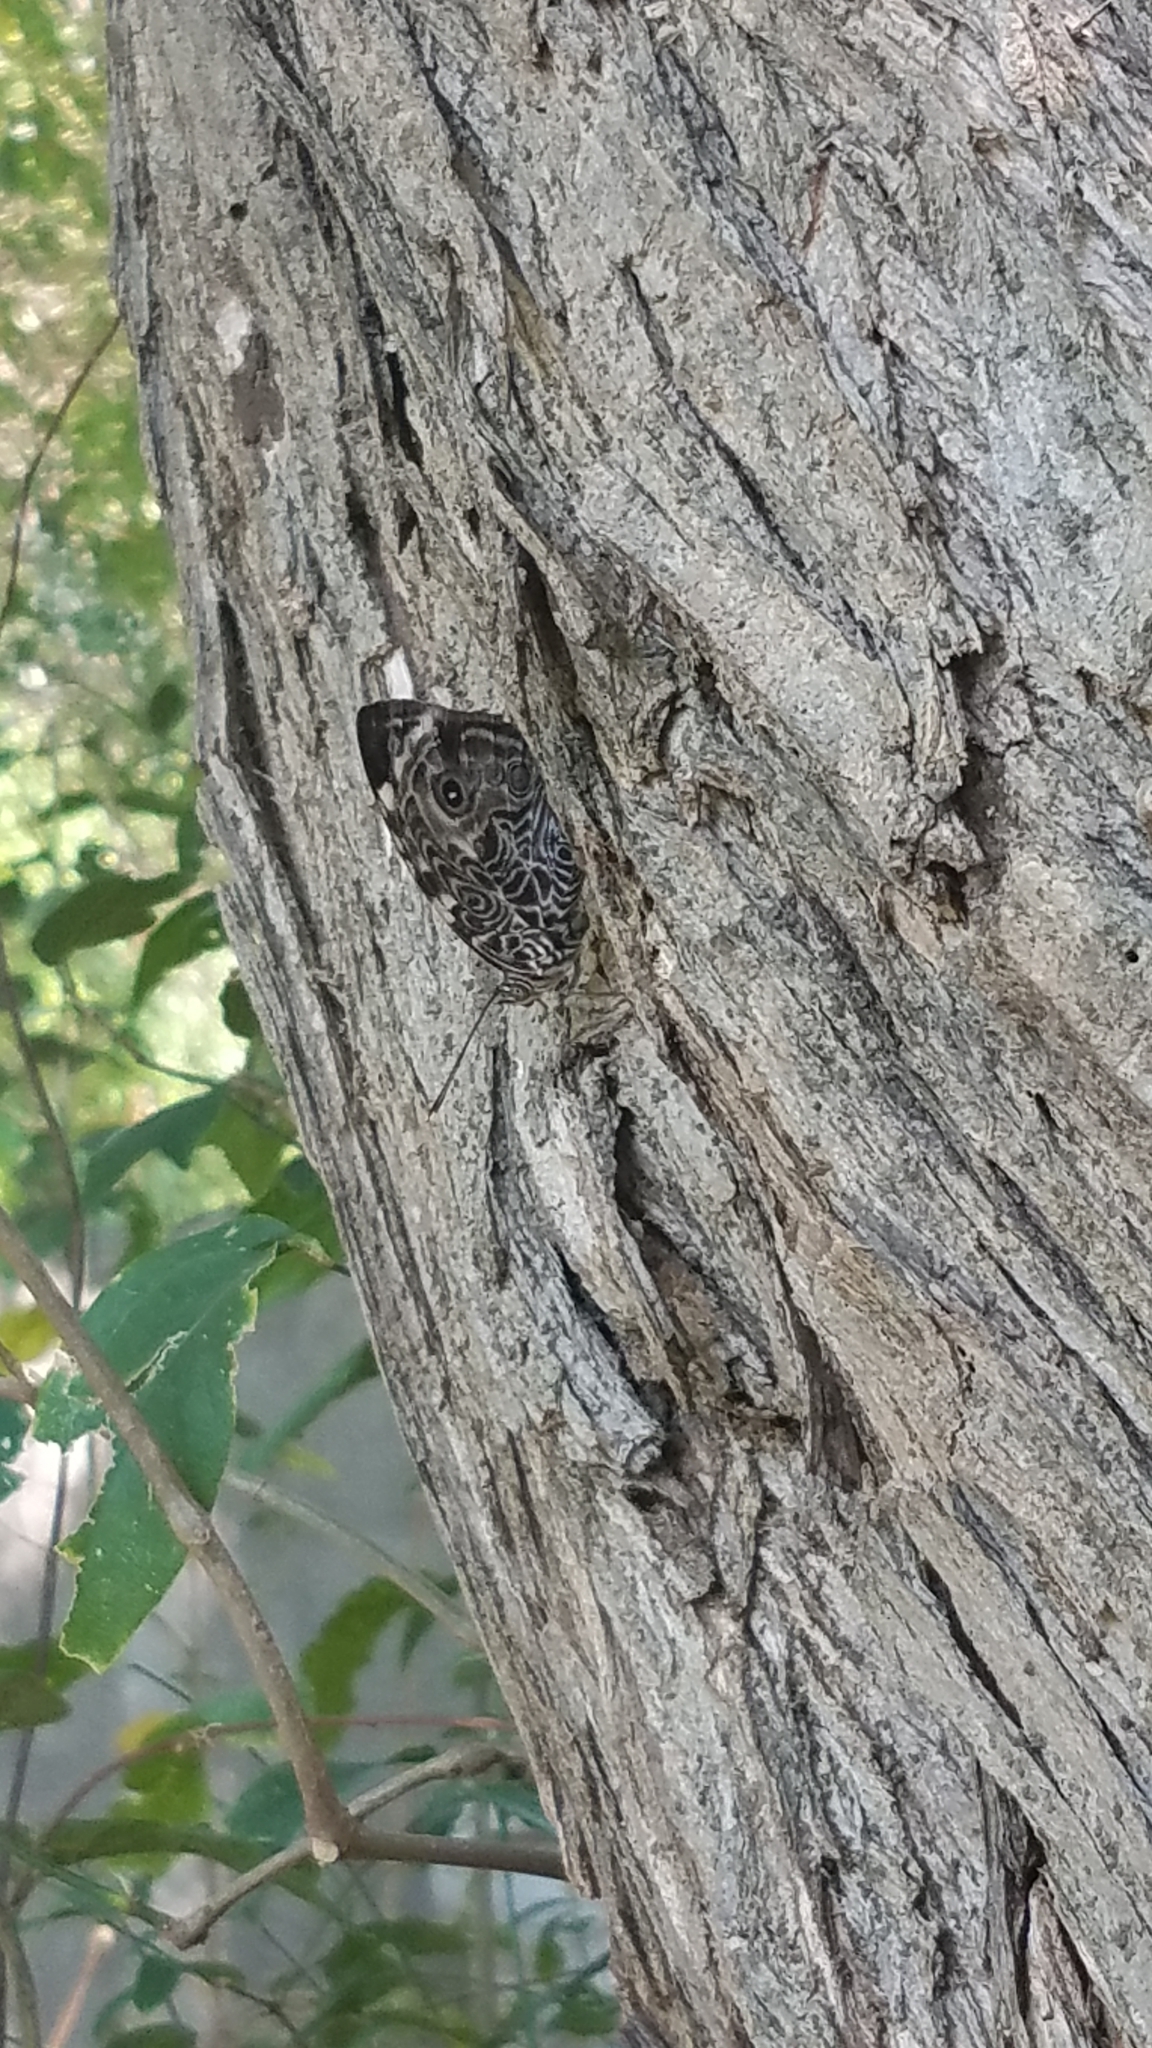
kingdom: Animalia
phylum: Arthropoda
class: Insecta
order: Lepidoptera
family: Nymphalidae
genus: Smyrna
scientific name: Smyrna blomfildia
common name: Blomfild's beauty
